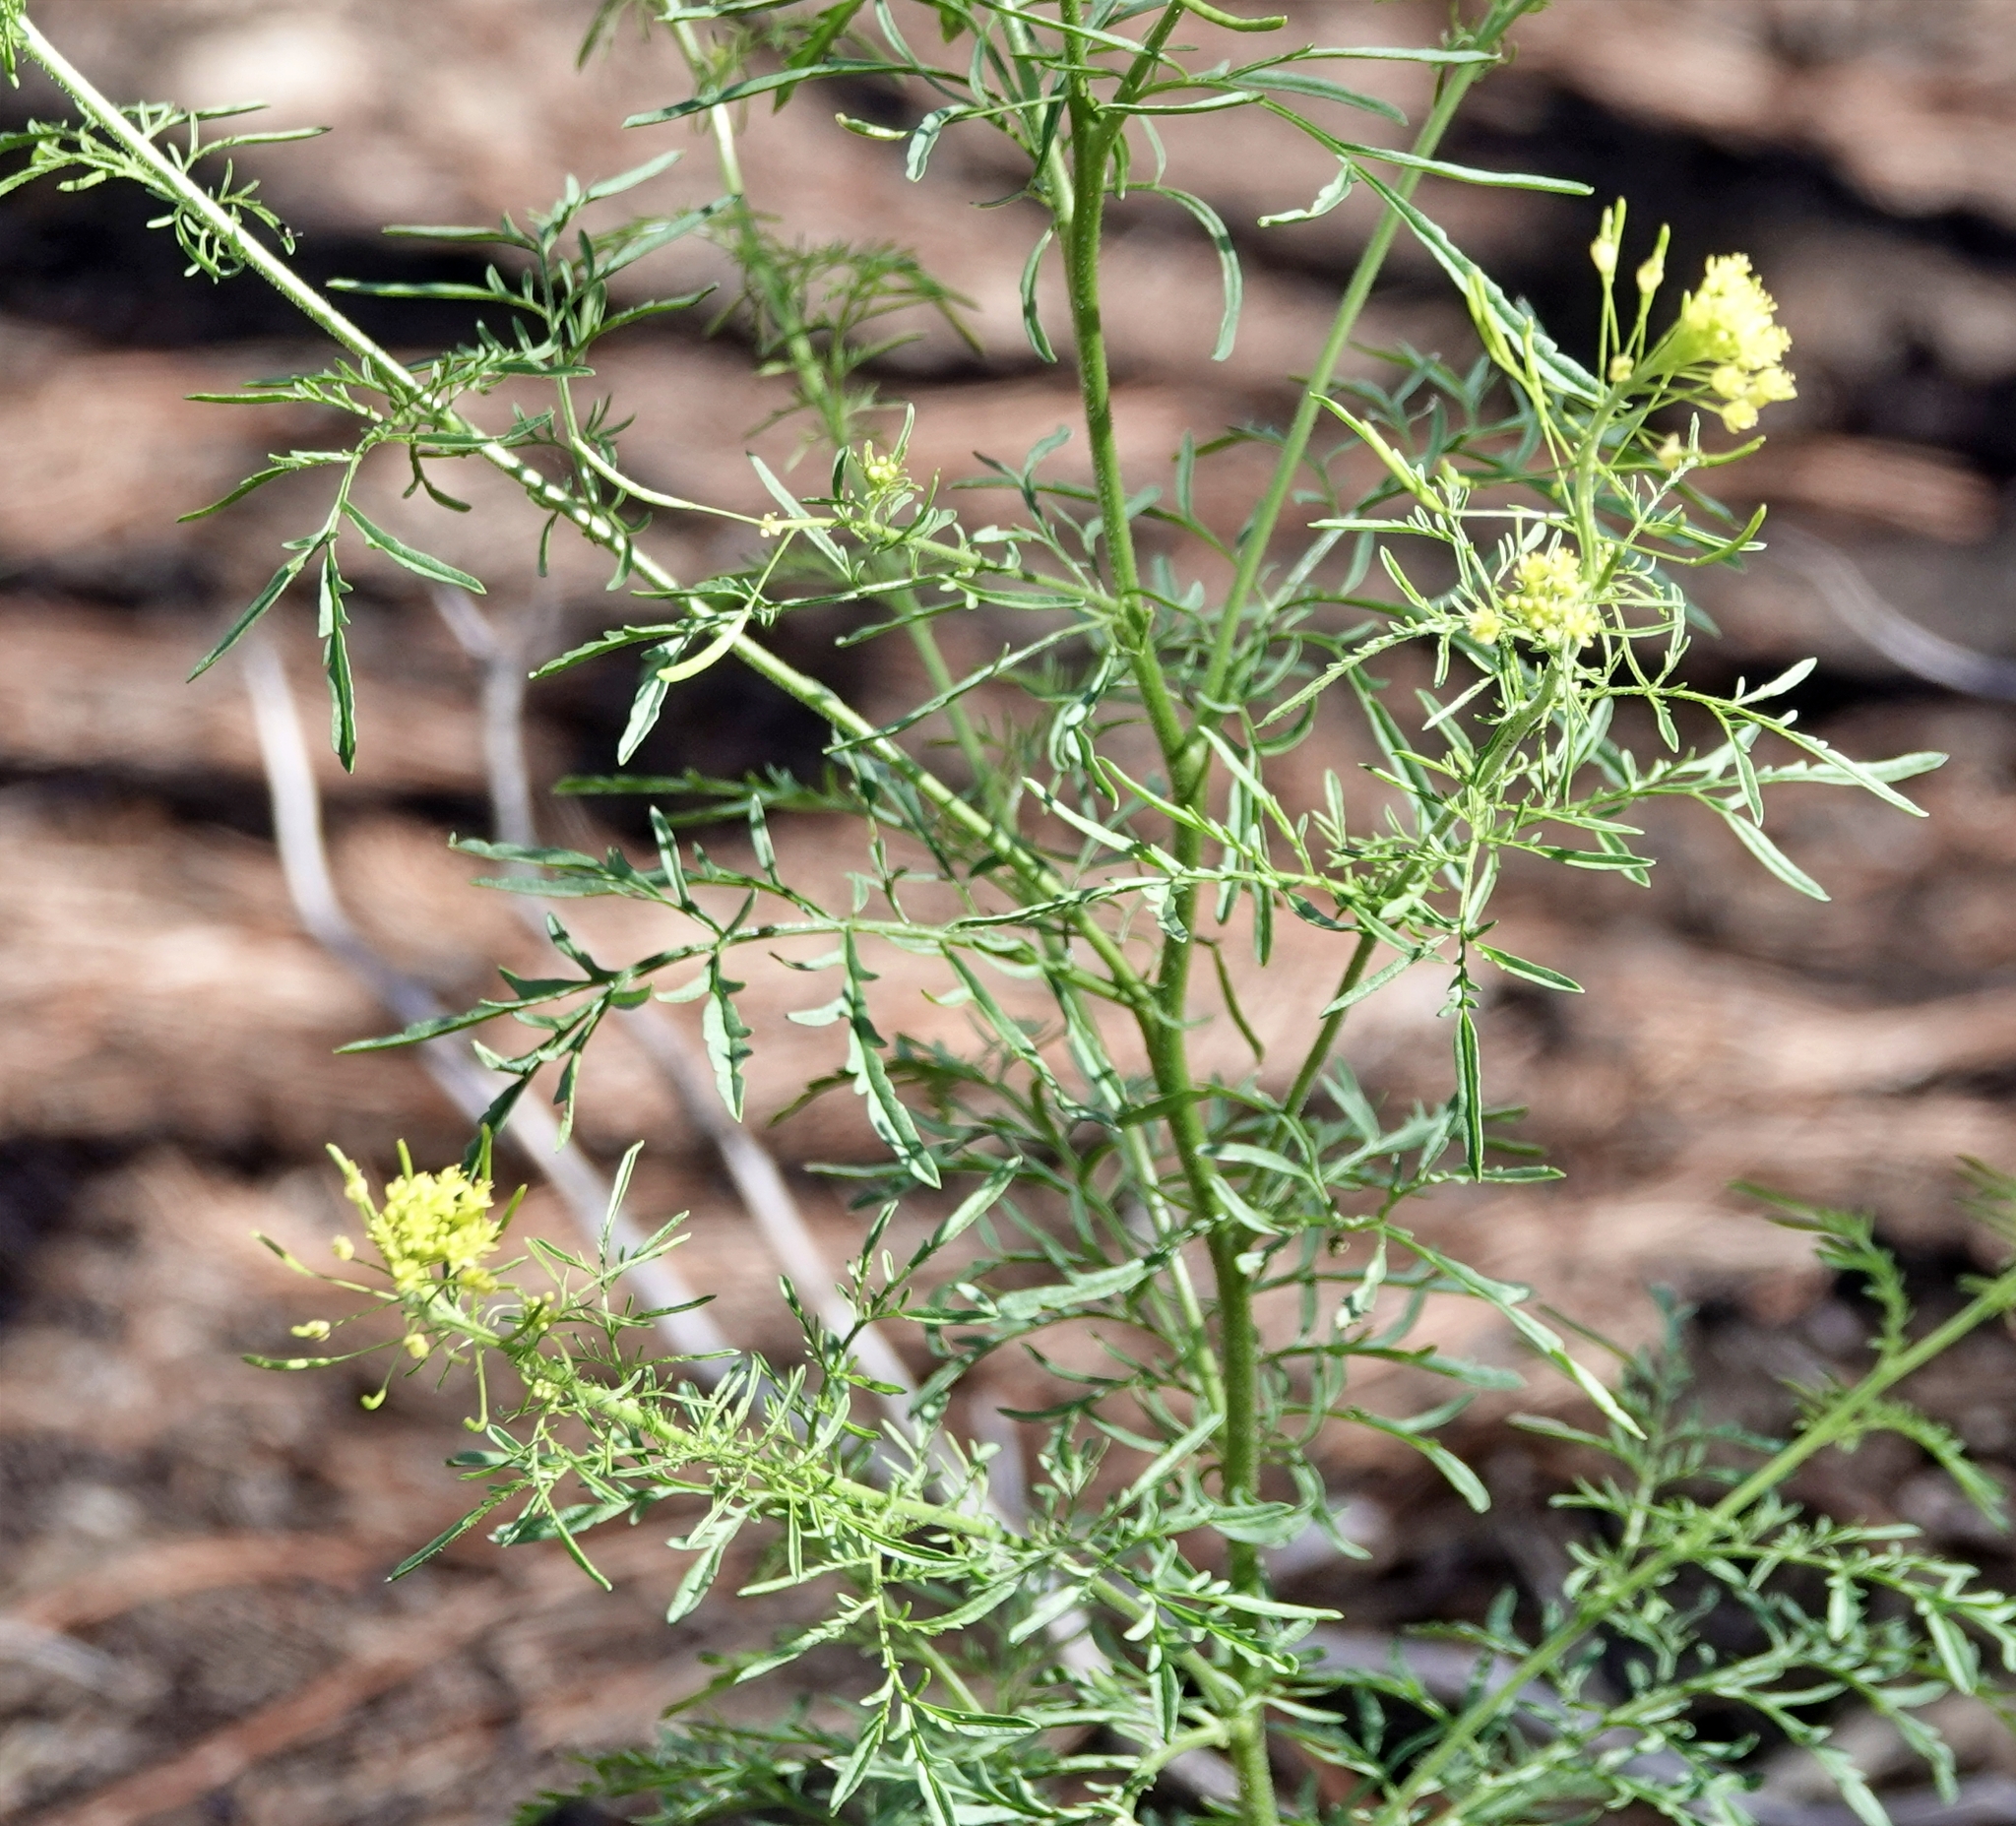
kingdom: Plantae
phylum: Tracheophyta
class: Magnoliopsida
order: Brassicales
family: Brassicaceae
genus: Descurainia
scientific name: Descurainia sophia
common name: Flixweed
